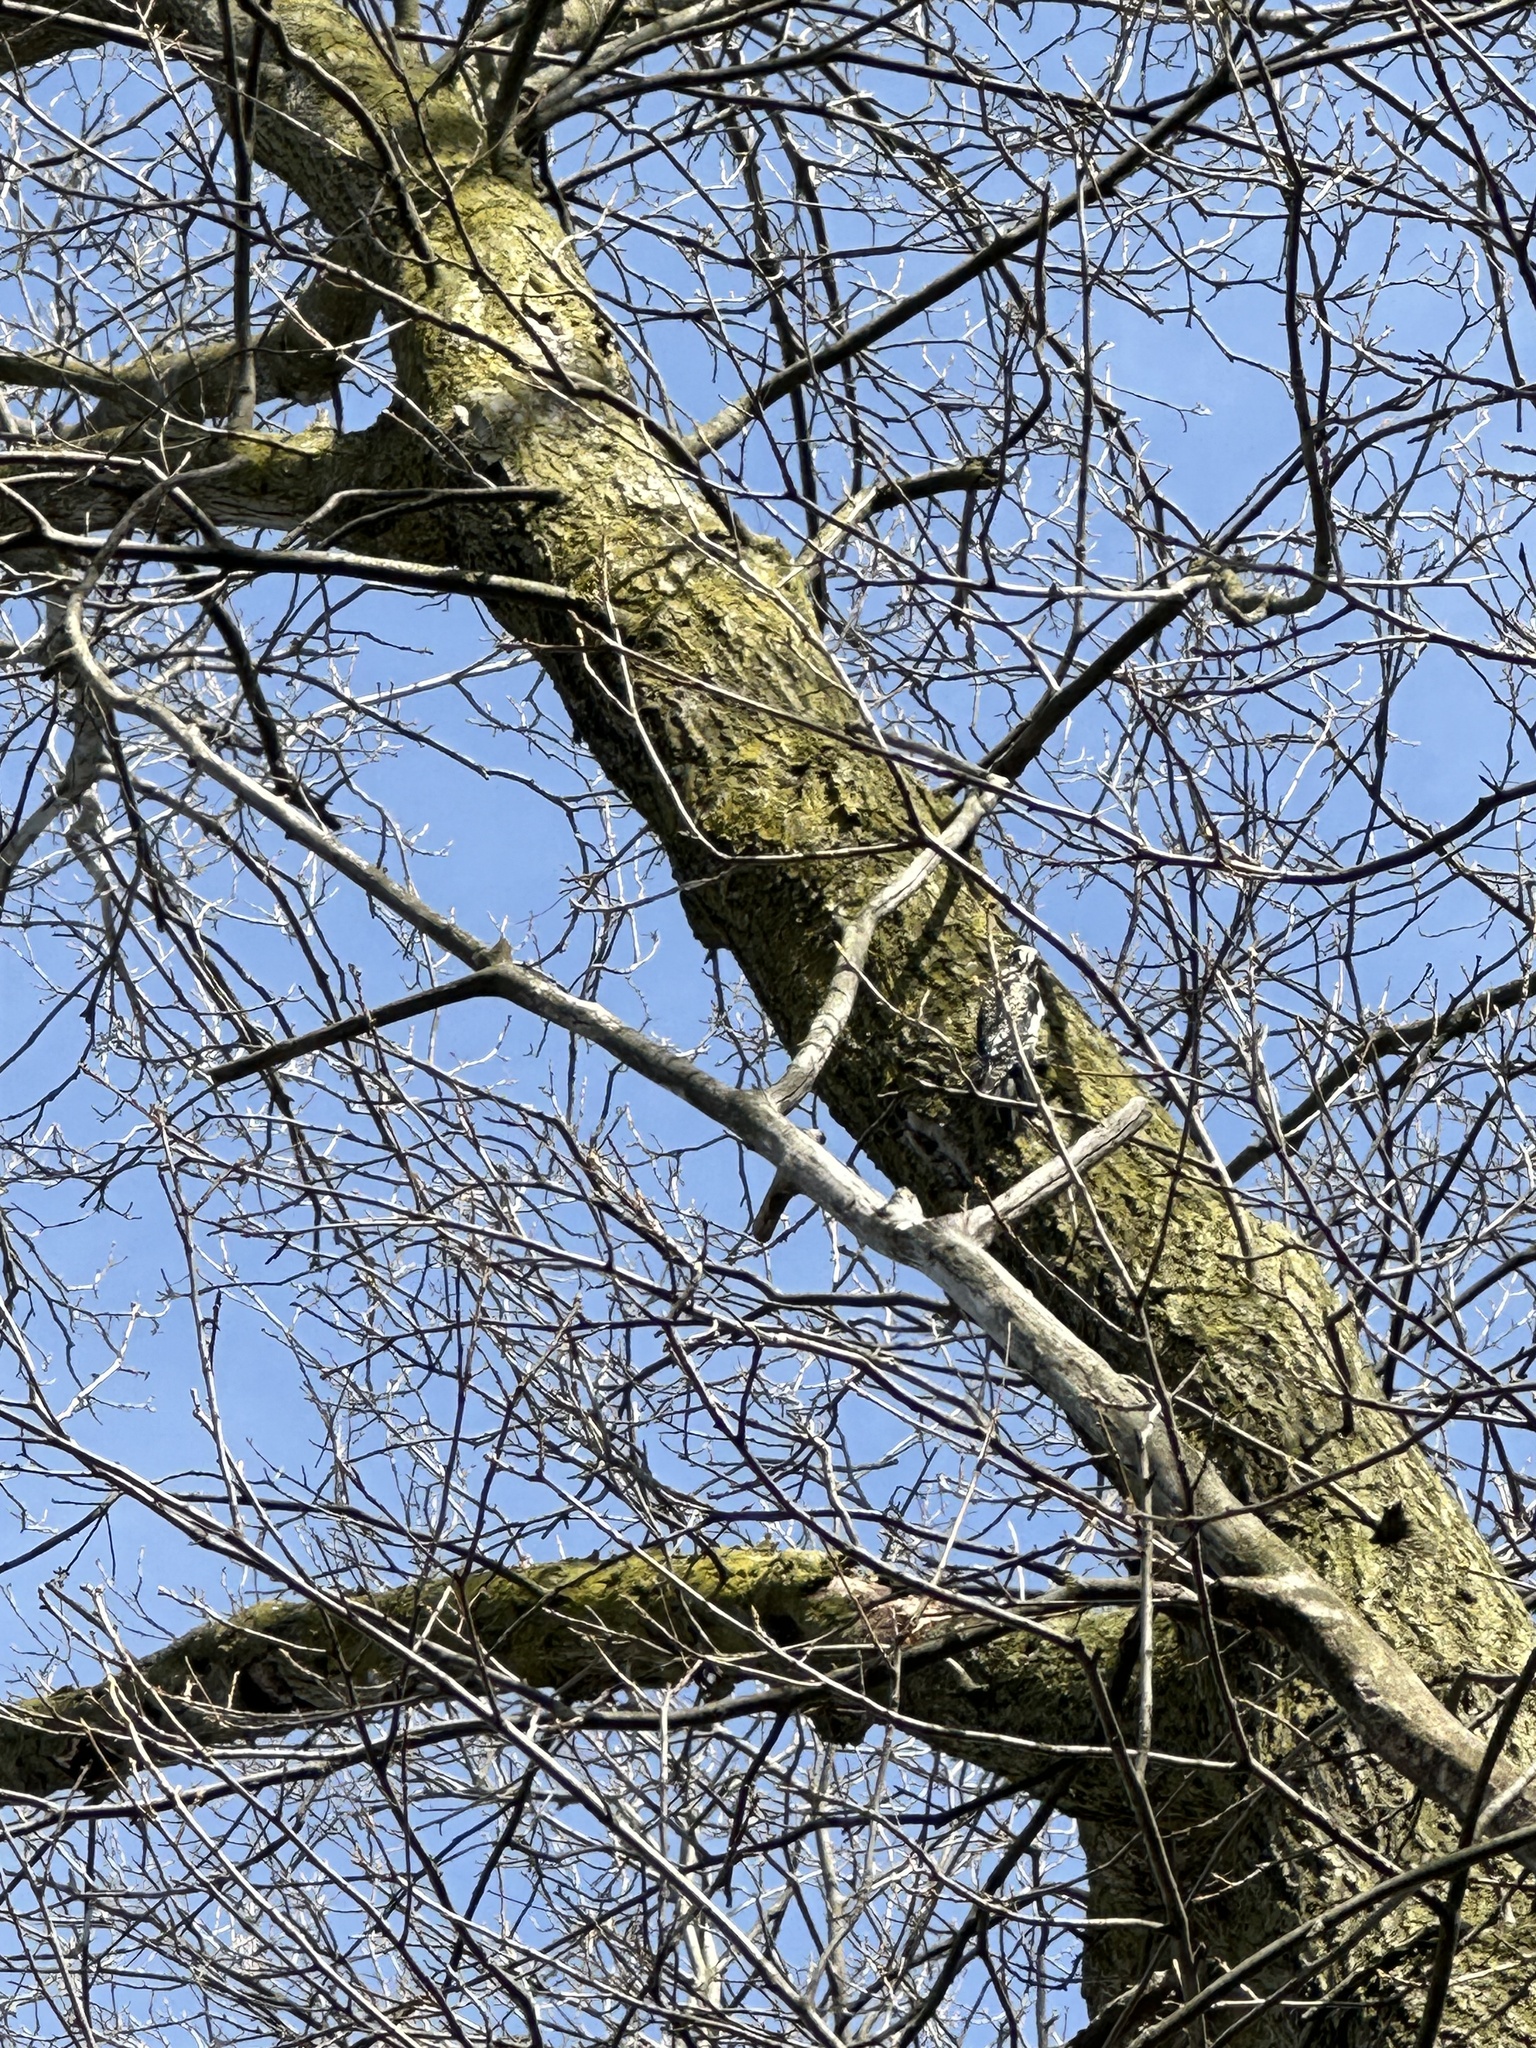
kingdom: Animalia
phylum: Chordata
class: Aves
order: Piciformes
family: Picidae
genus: Sphyrapicus
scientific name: Sphyrapicus varius
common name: Yellow-bellied sapsucker
